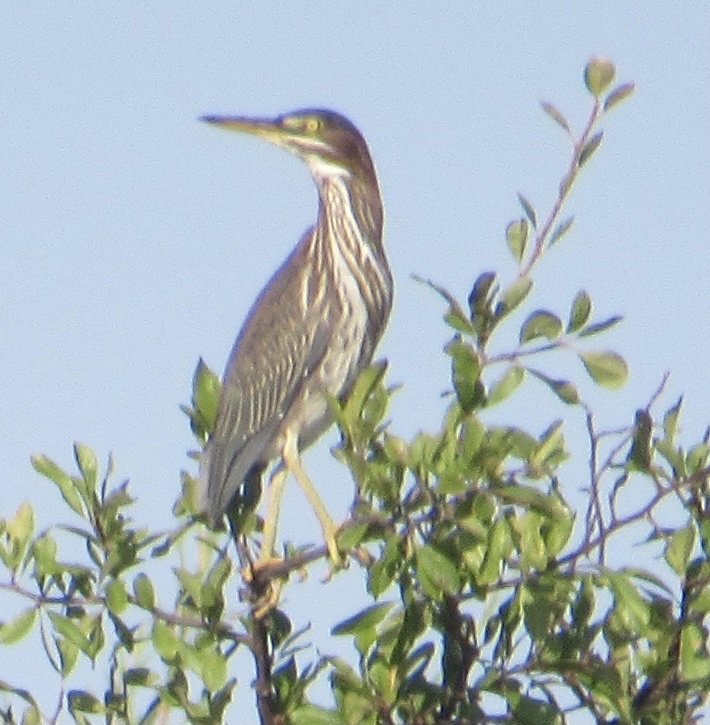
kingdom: Animalia
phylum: Chordata
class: Aves
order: Pelecaniformes
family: Ardeidae
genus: Butorides
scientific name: Butorides virescens
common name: Green heron
